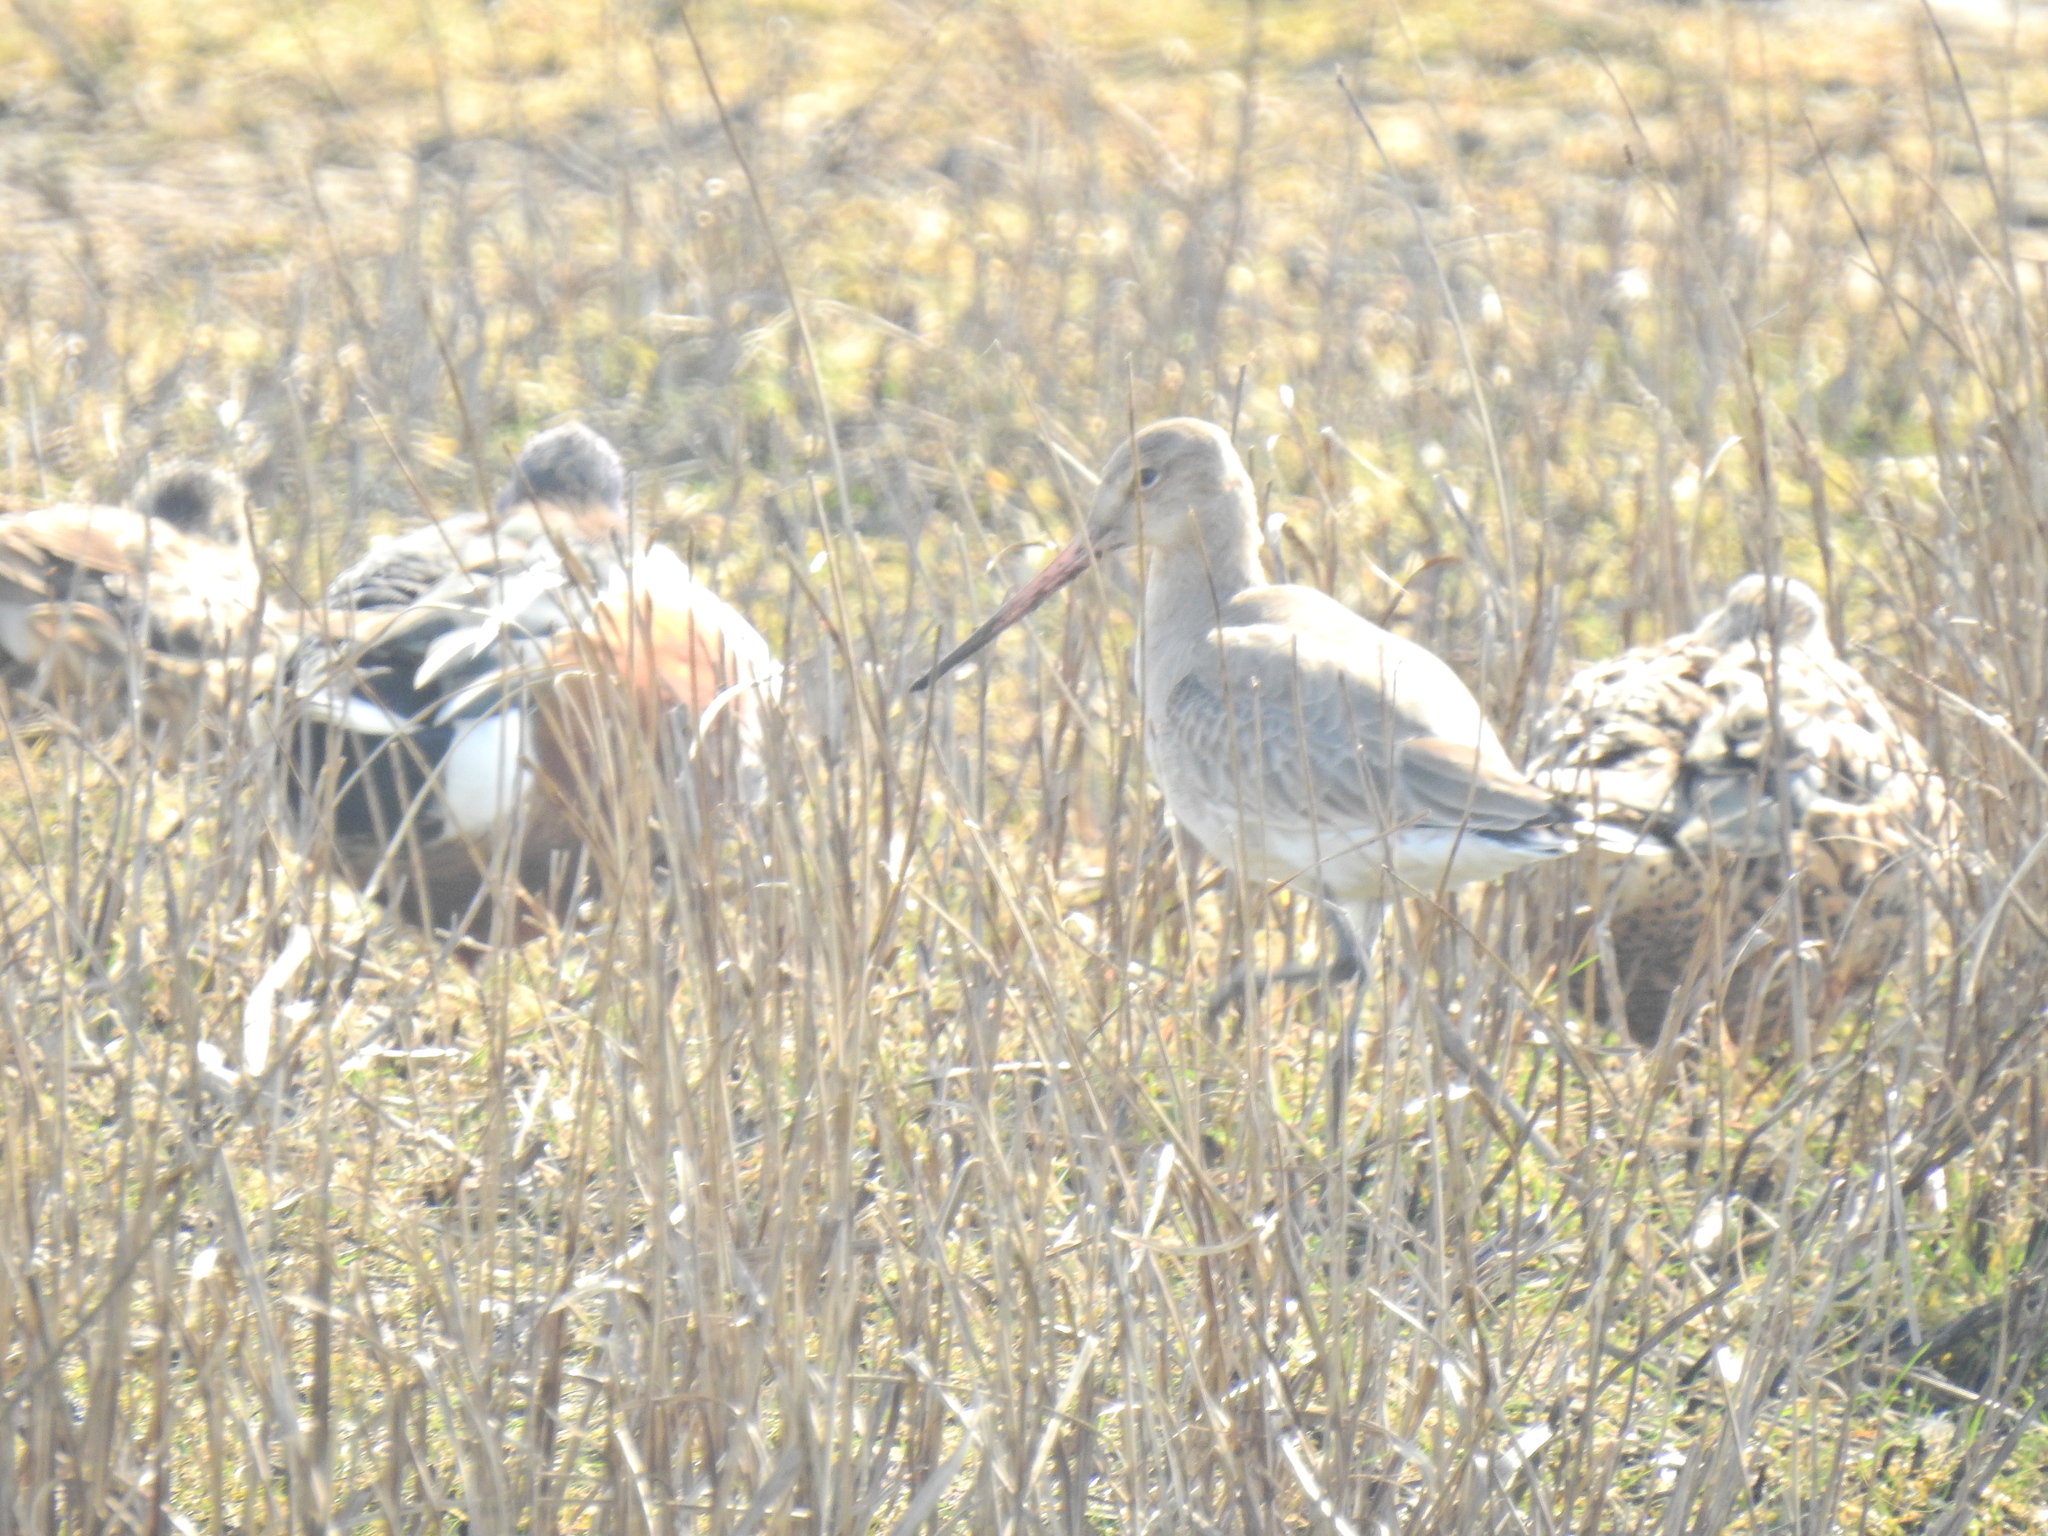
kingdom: Animalia
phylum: Chordata
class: Aves
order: Charadriiformes
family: Scolopacidae
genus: Limosa
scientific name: Limosa limosa
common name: Black-tailed godwit
